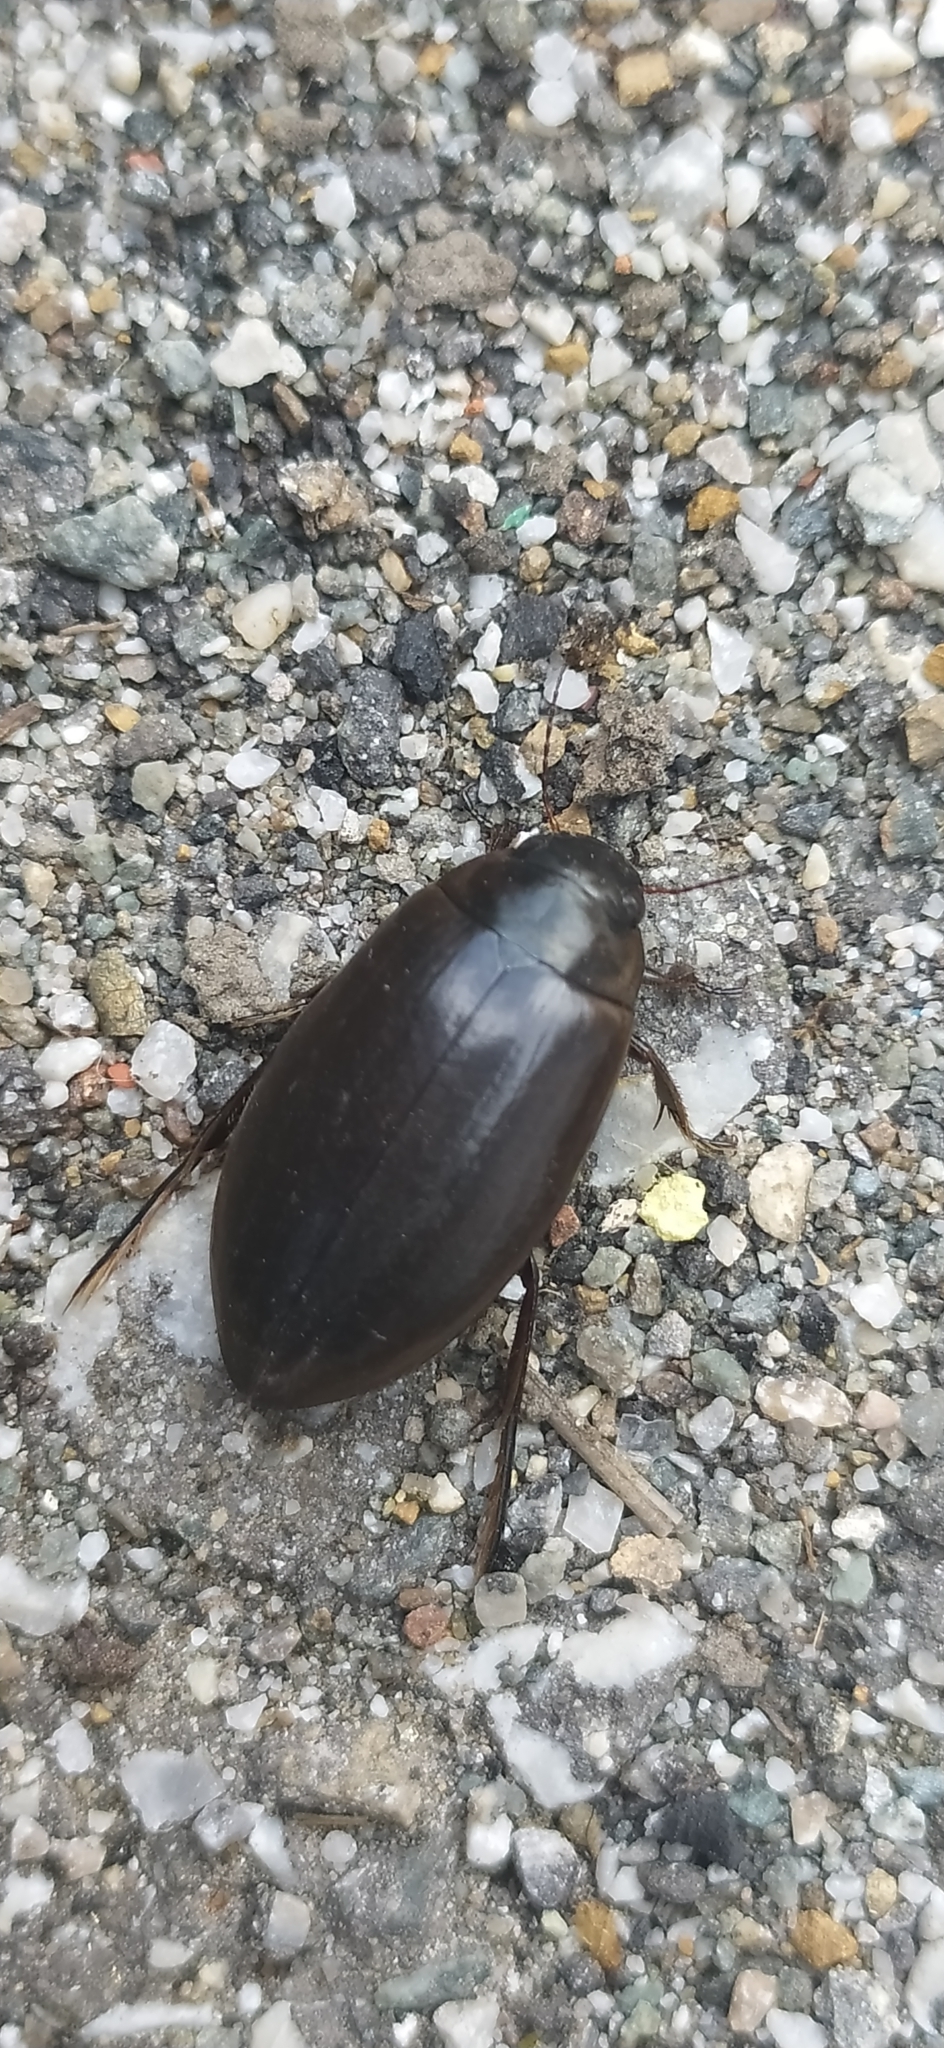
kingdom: Animalia
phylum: Arthropoda
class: Insecta
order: Coleoptera
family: Dytiscidae
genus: Colymbetes
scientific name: Colymbetes paykulli
